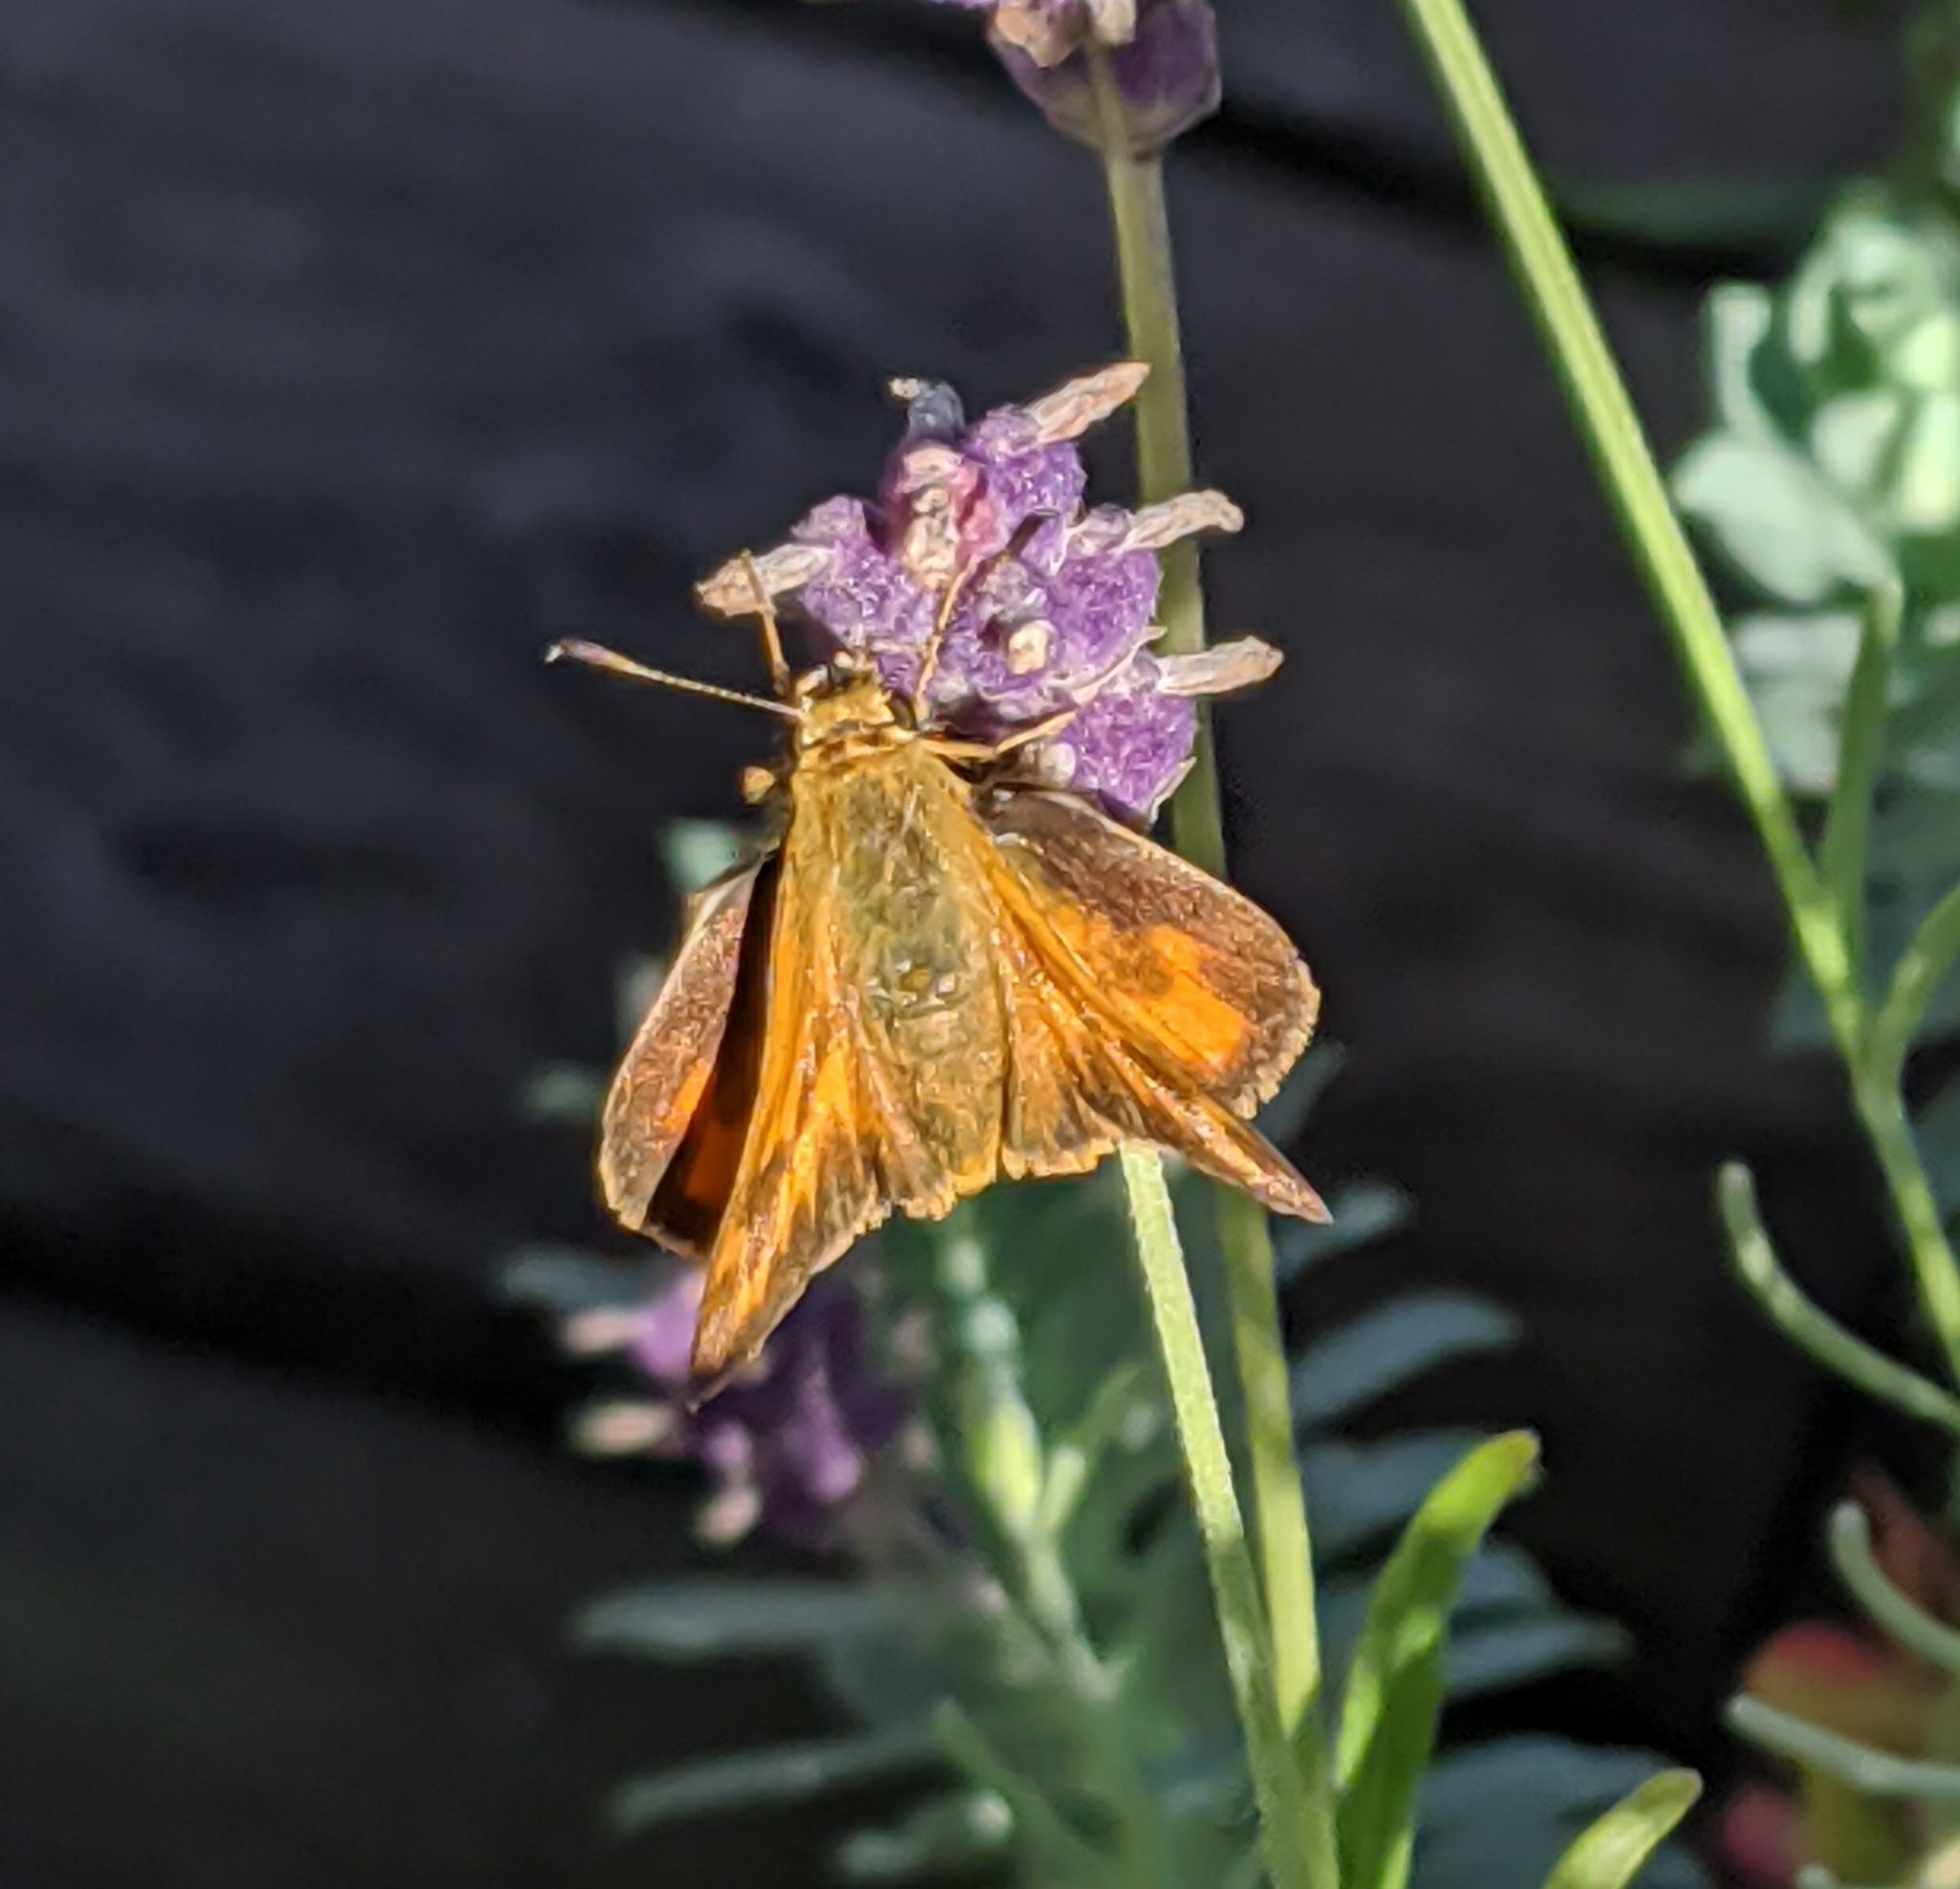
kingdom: Animalia
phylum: Arthropoda
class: Insecta
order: Lepidoptera
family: Hesperiidae
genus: Ochlodes
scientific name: Ochlodes sylvanoides
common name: Woodland skipper
